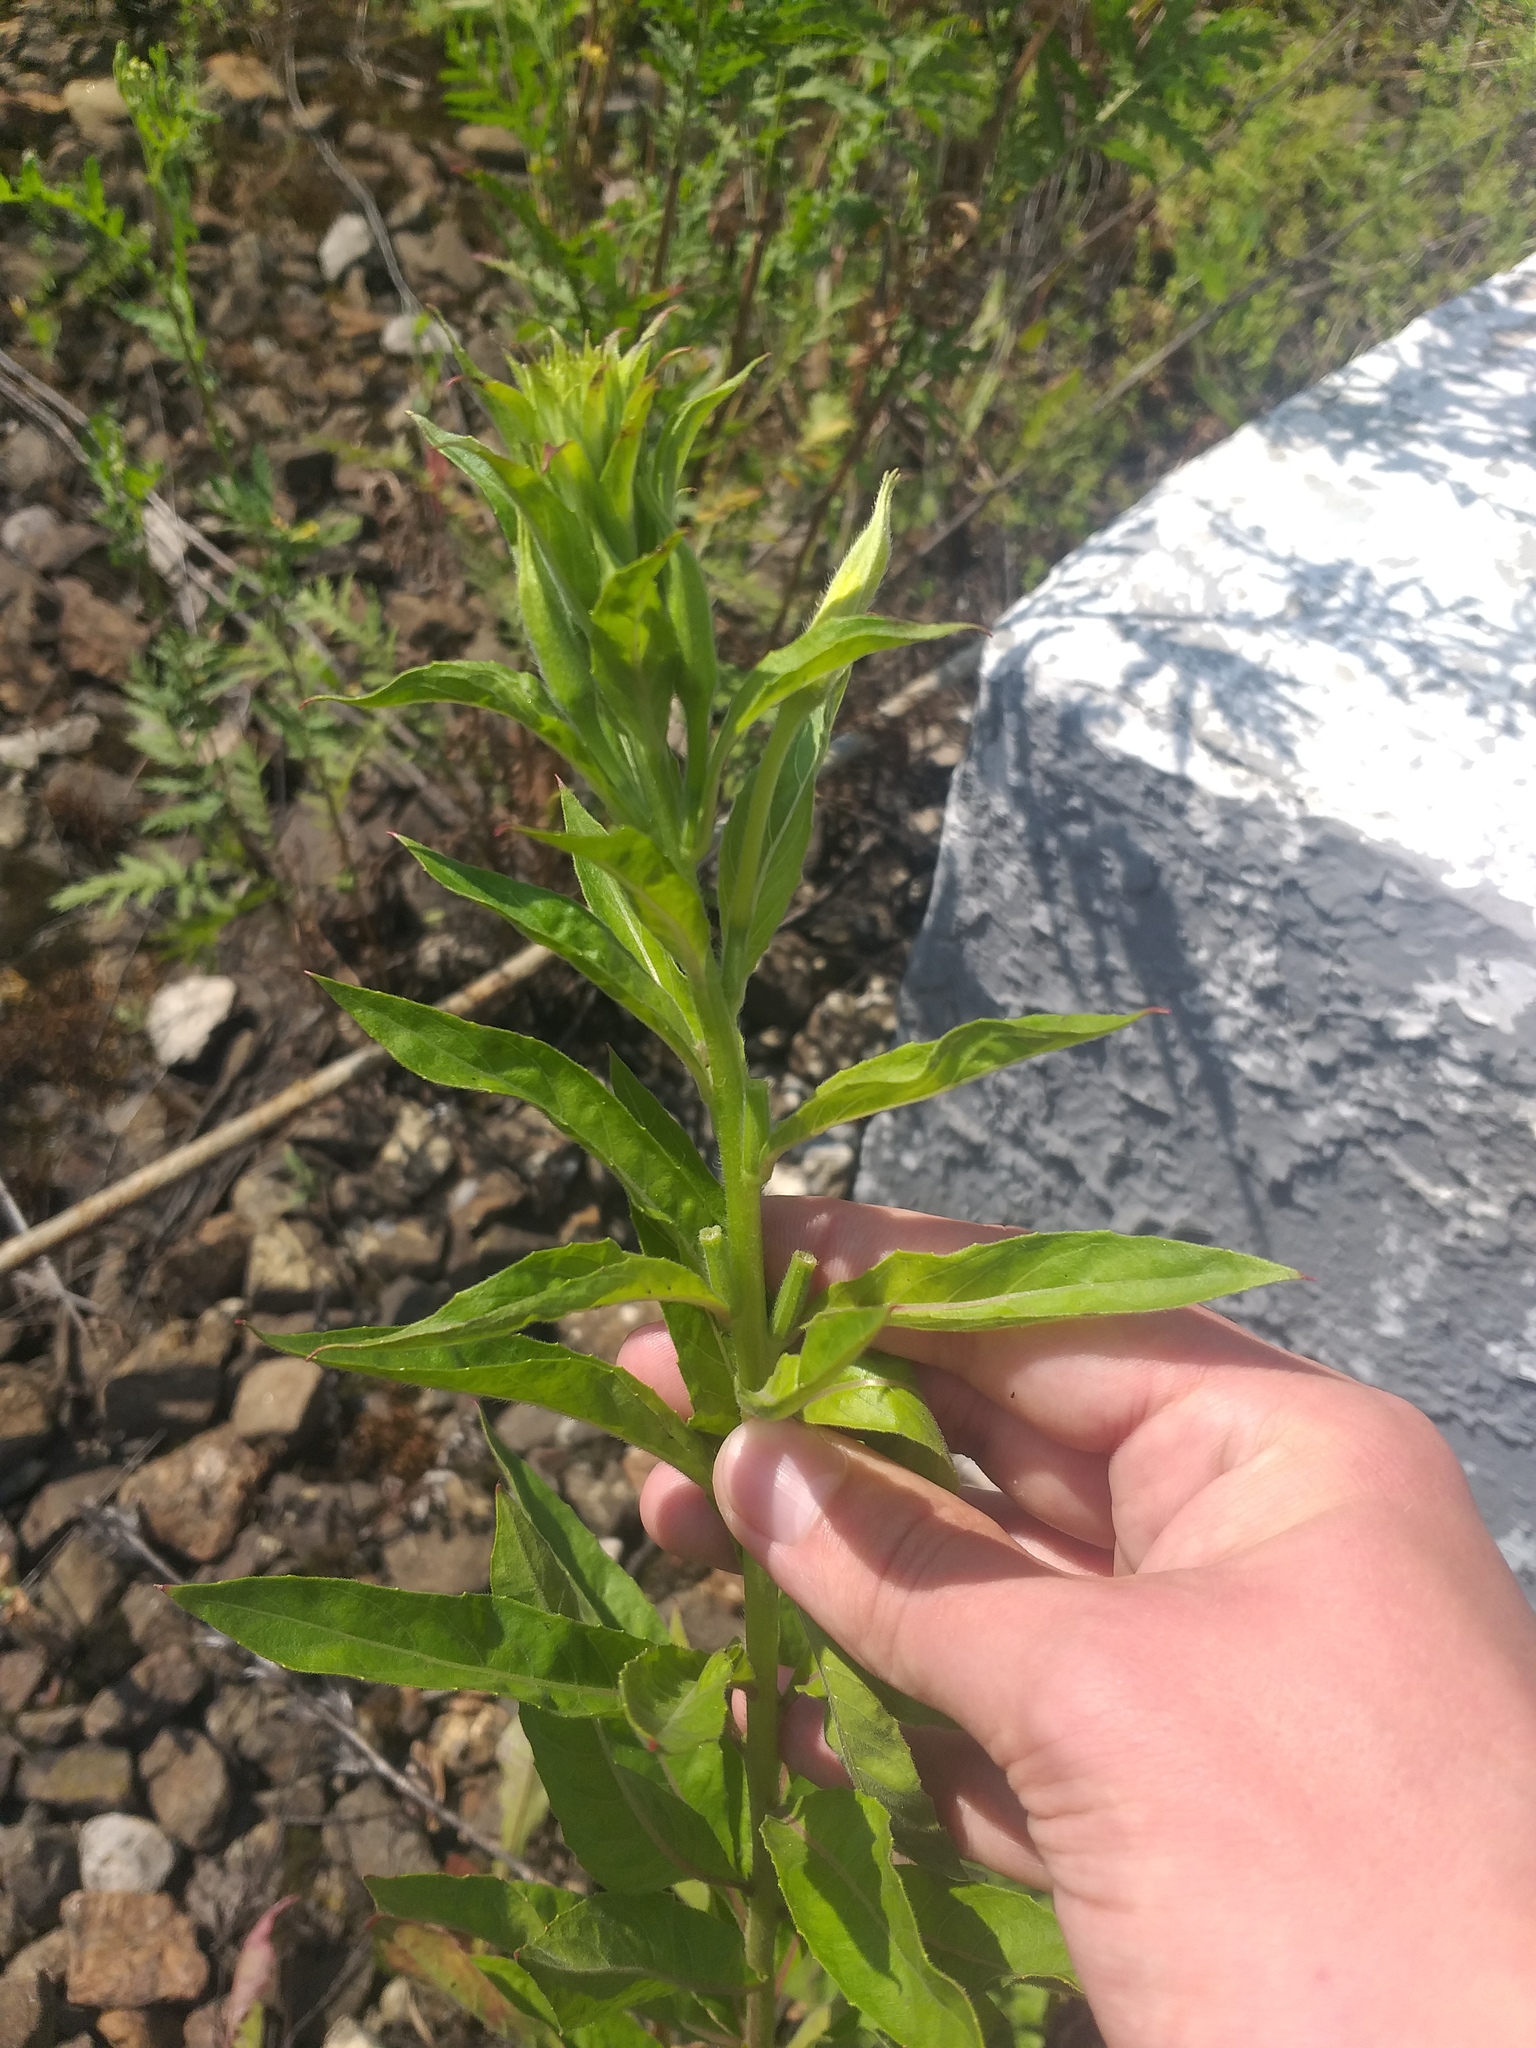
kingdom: Plantae
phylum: Tracheophyta
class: Magnoliopsida
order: Myrtales
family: Onagraceae
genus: Oenothera
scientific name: Oenothera biennis
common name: Common evening-primrose
